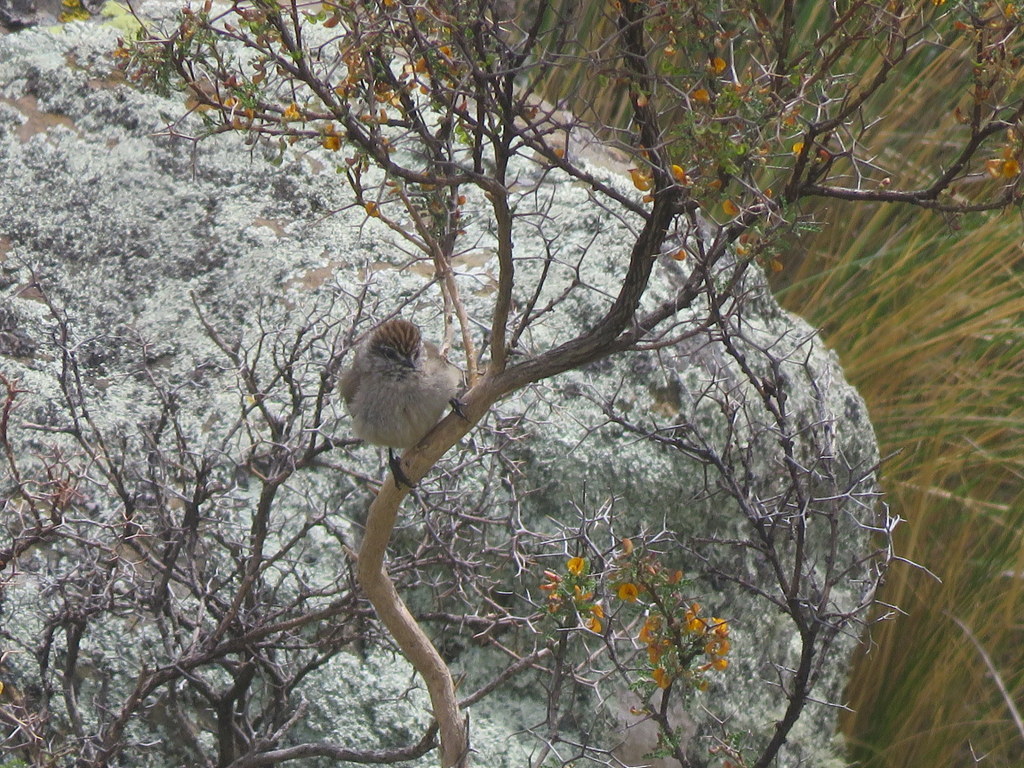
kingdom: Animalia
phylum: Chordata
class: Aves
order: Passeriformes
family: Furnariidae
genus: Leptasthenura
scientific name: Leptasthenura aegithaloides
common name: Plain-mantled tit-spinetail
